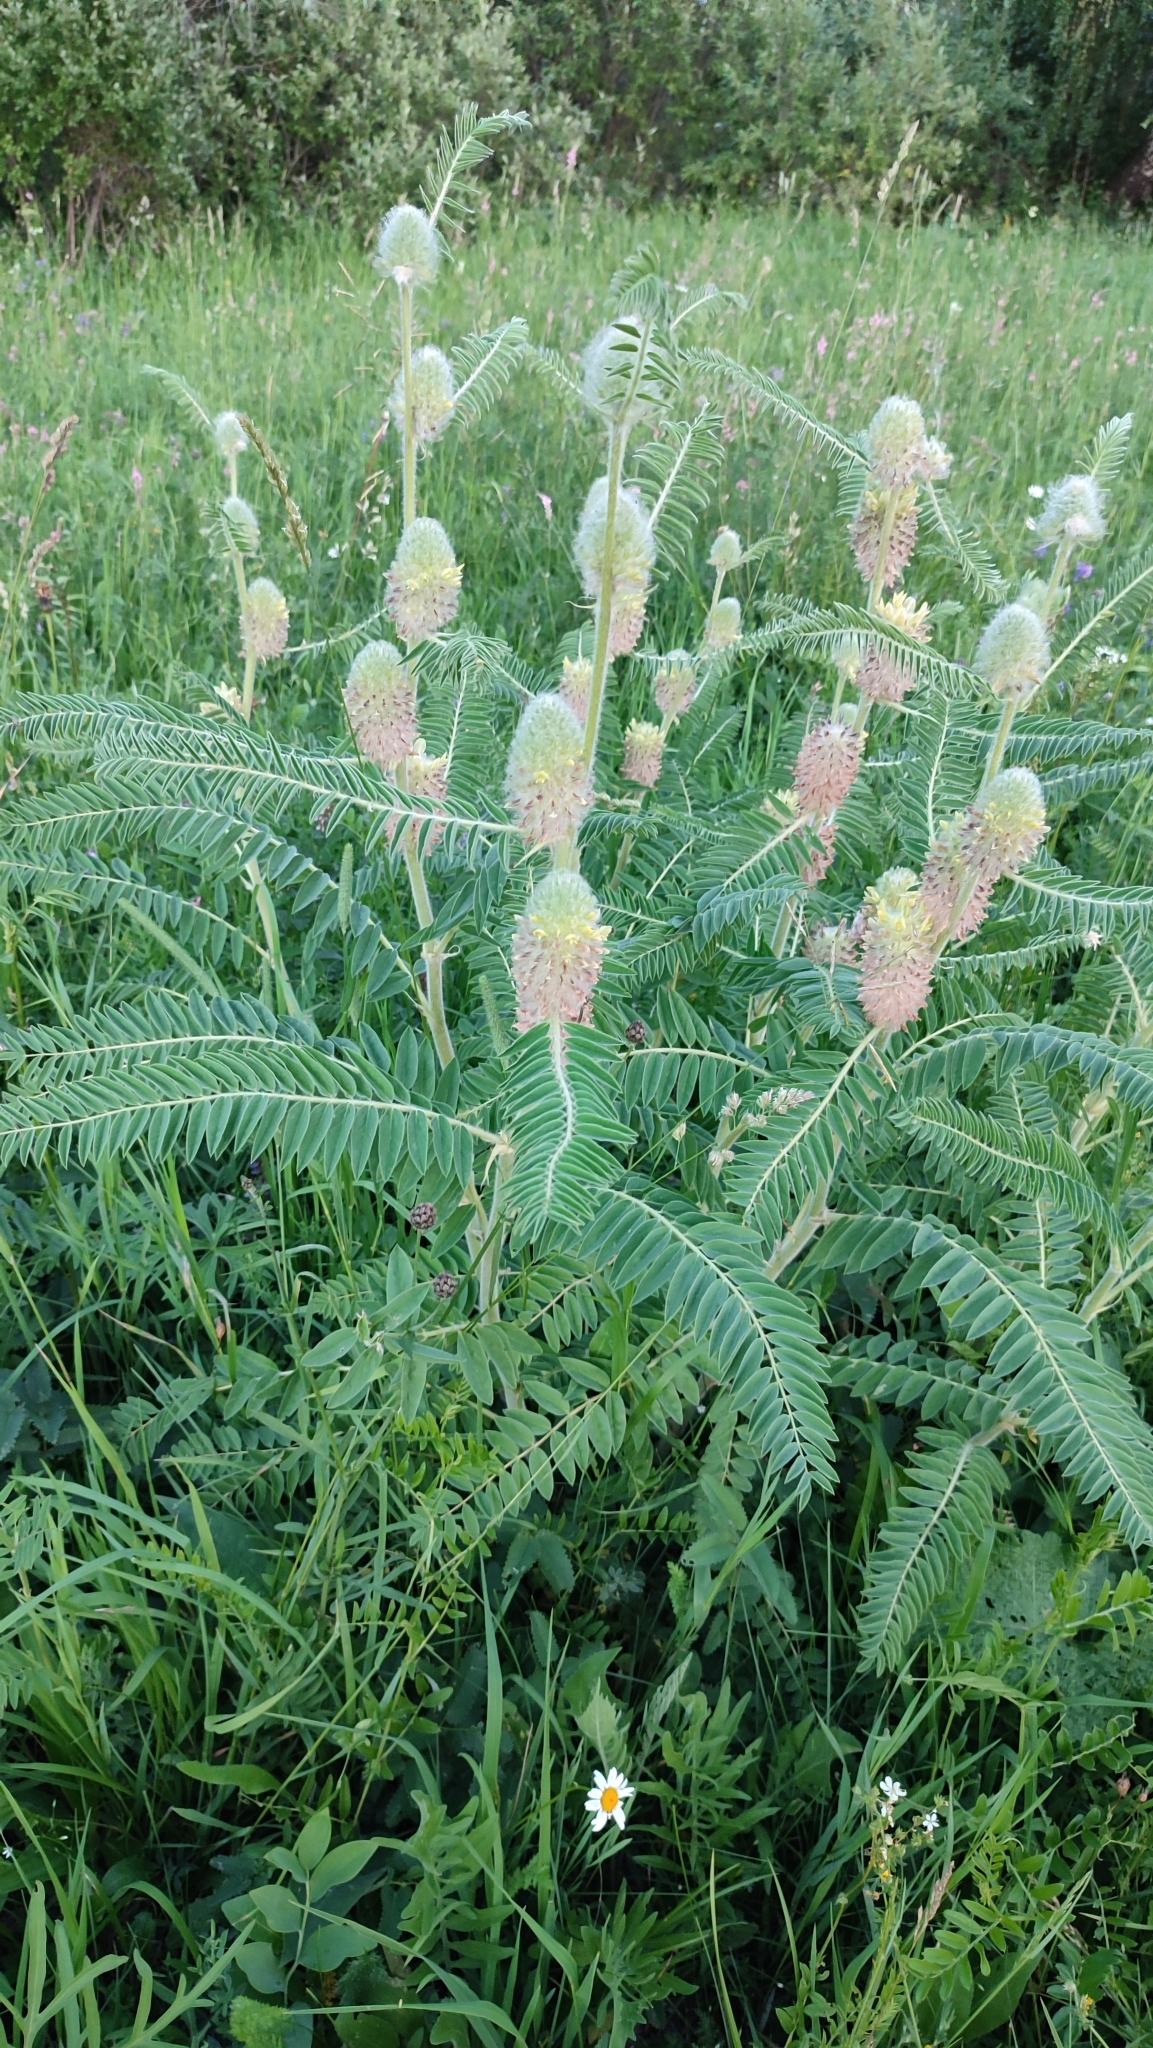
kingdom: Plantae
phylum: Tracheophyta
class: Magnoliopsida
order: Fabales
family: Fabaceae
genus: Astragalus
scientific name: Astragalus alopecurus
